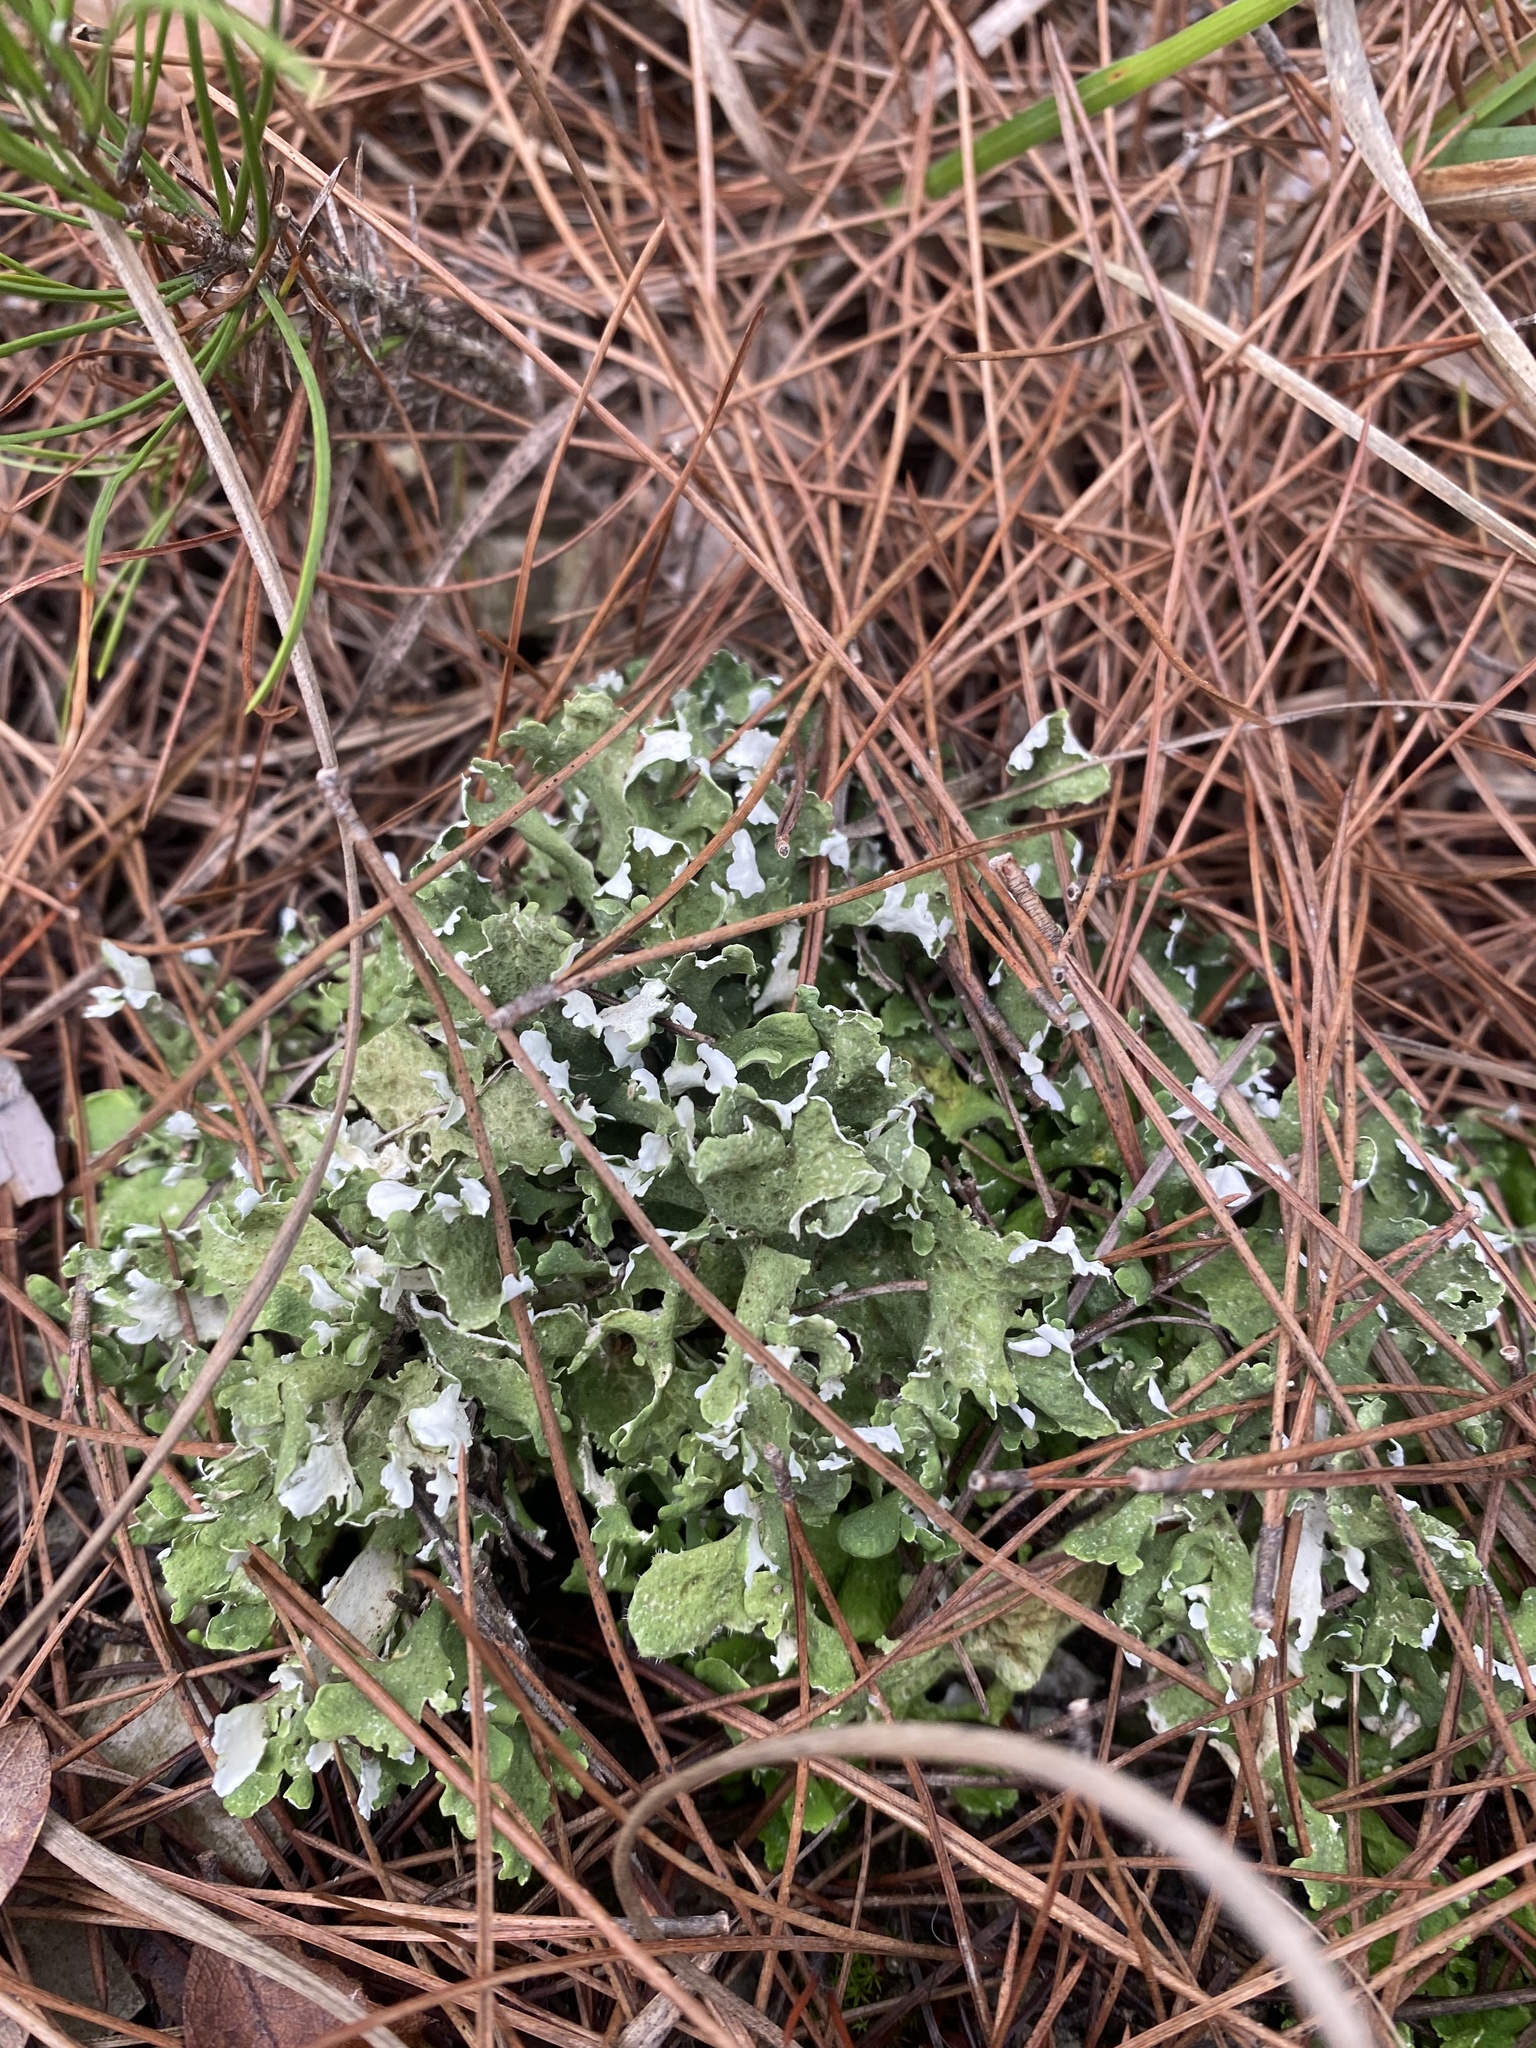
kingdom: Fungi
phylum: Ascomycota
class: Lecanoromycetes
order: Lecanorales
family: Cladoniaceae
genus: Cladonia
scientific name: Cladonia foliacea
